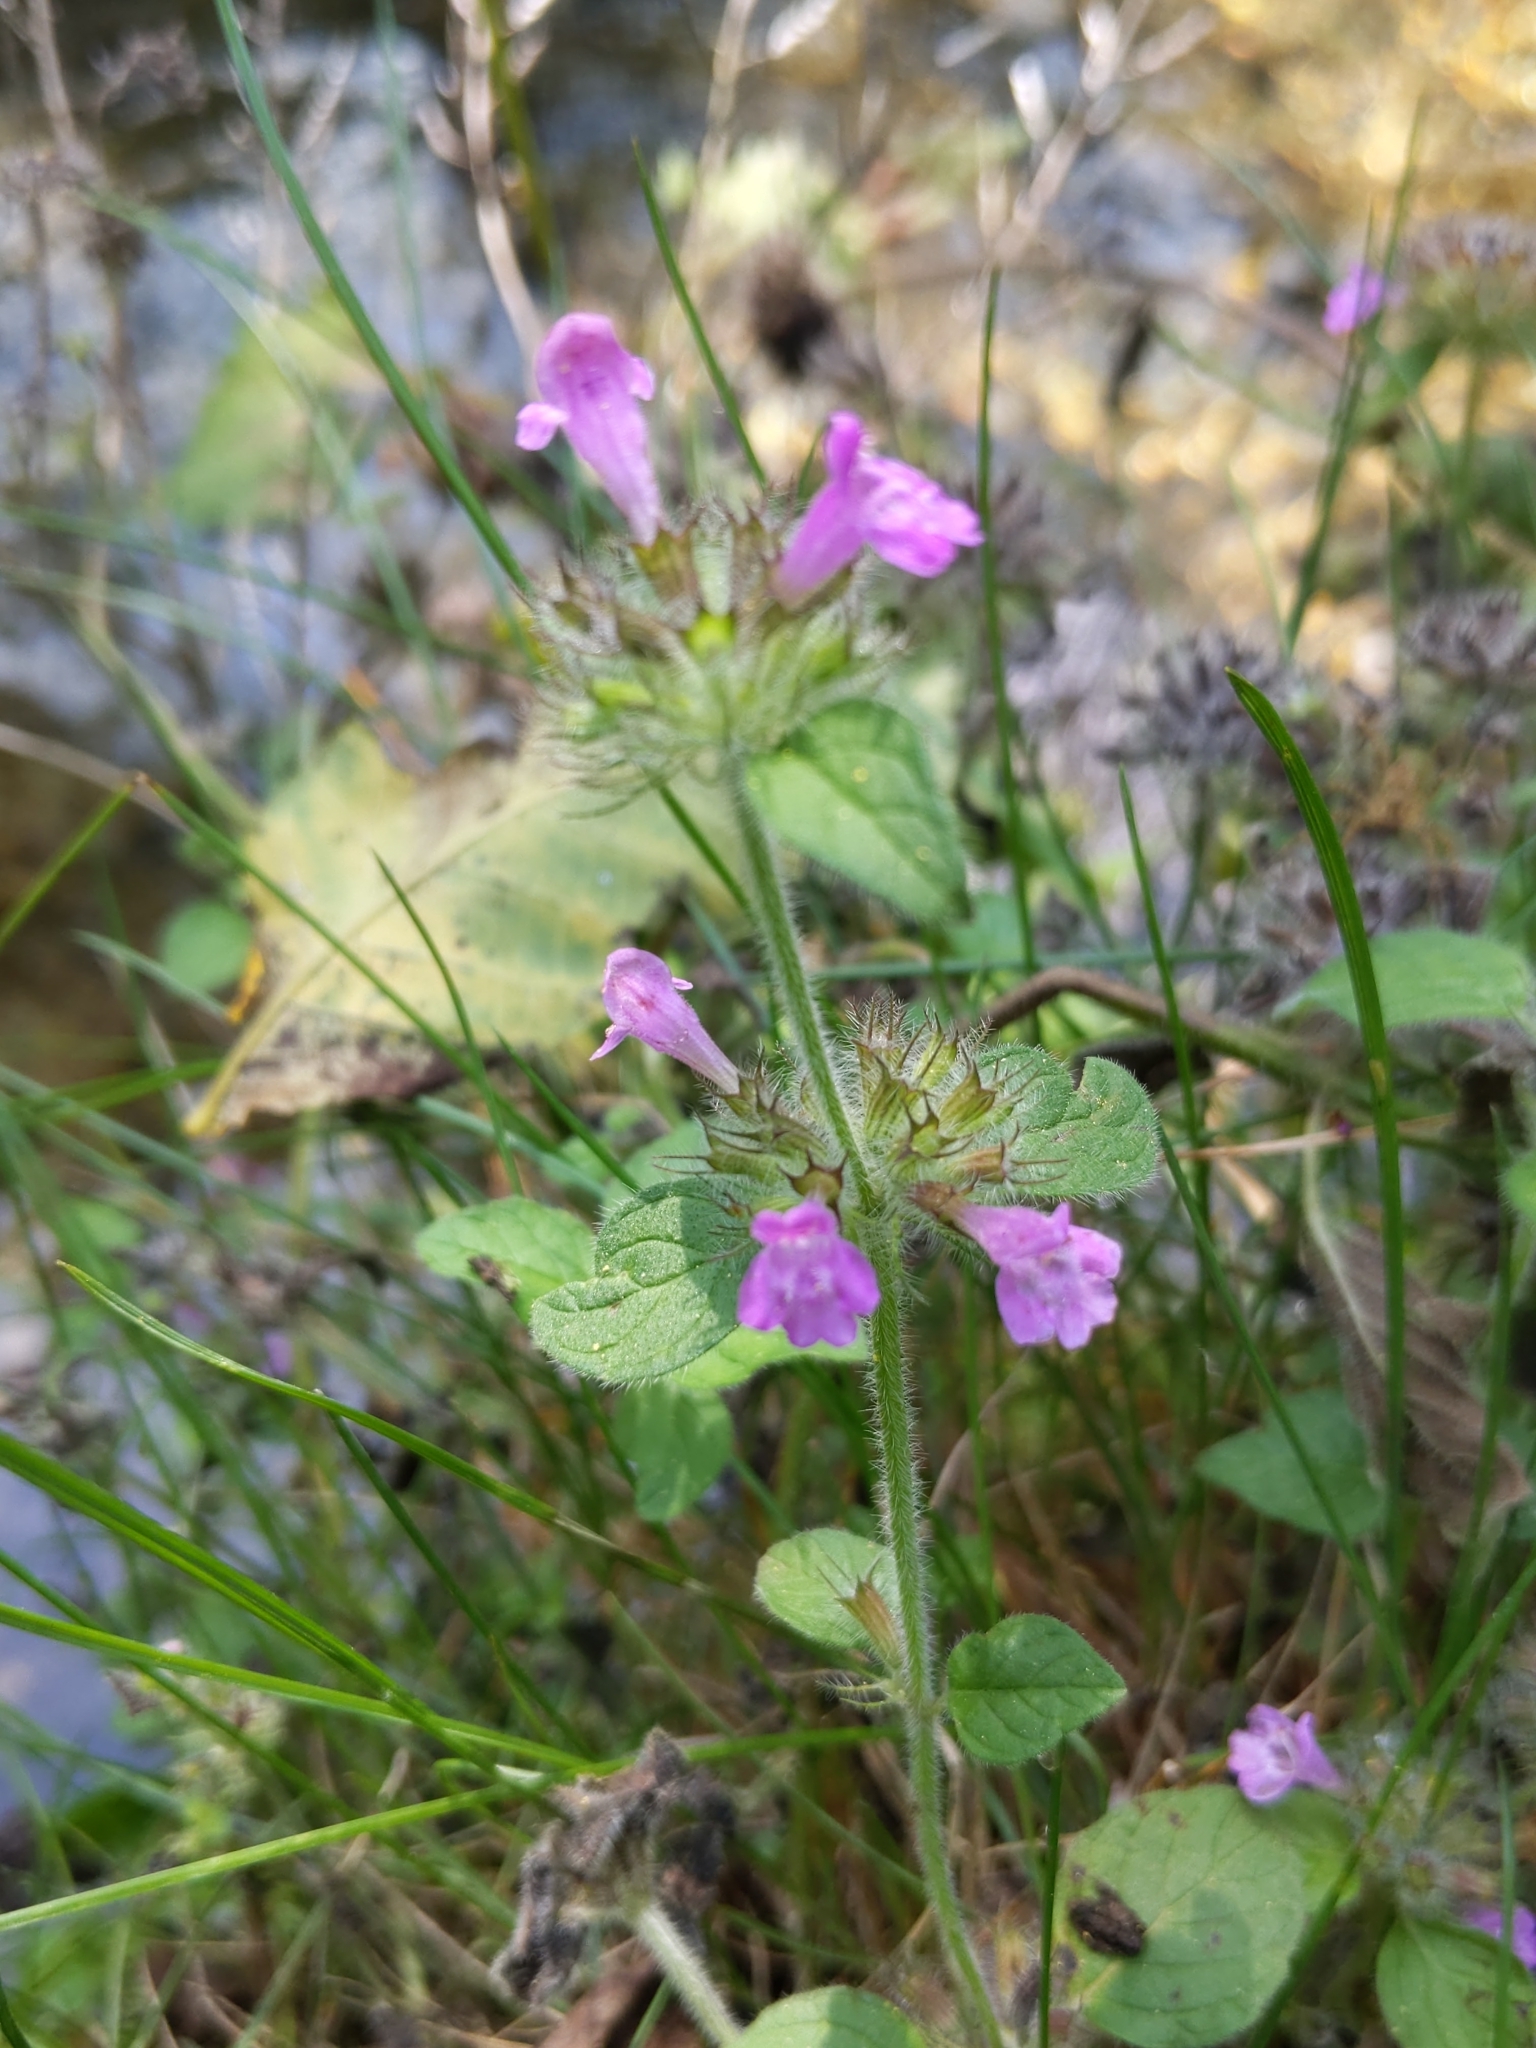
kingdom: Plantae
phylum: Tracheophyta
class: Magnoliopsida
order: Lamiales
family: Lamiaceae
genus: Clinopodium
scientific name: Clinopodium vulgare
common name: Wild basil
